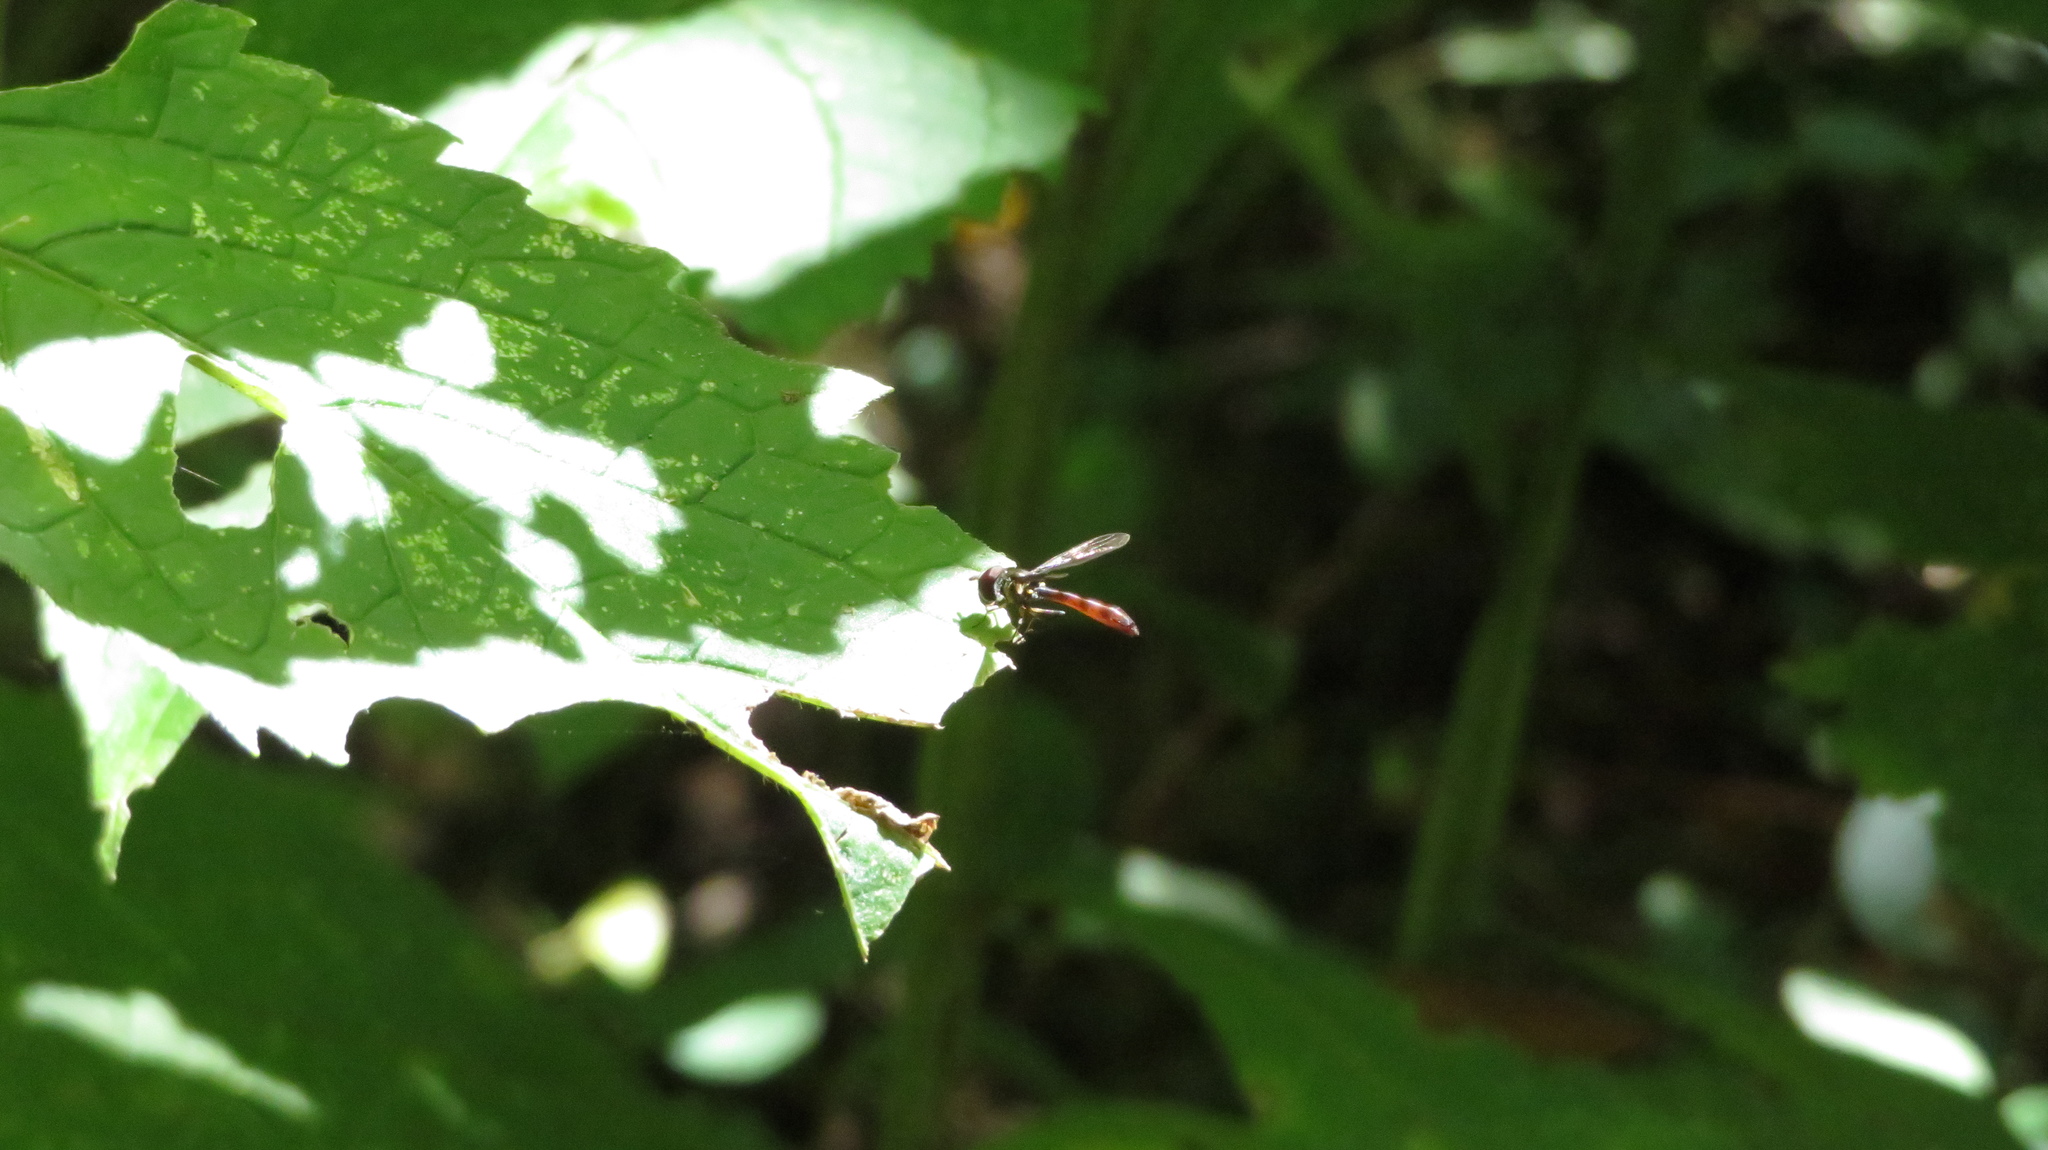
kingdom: Animalia
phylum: Arthropoda
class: Insecta
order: Diptera
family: Syrphidae
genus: Ocyptamus
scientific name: Ocyptamus fuscipennis
